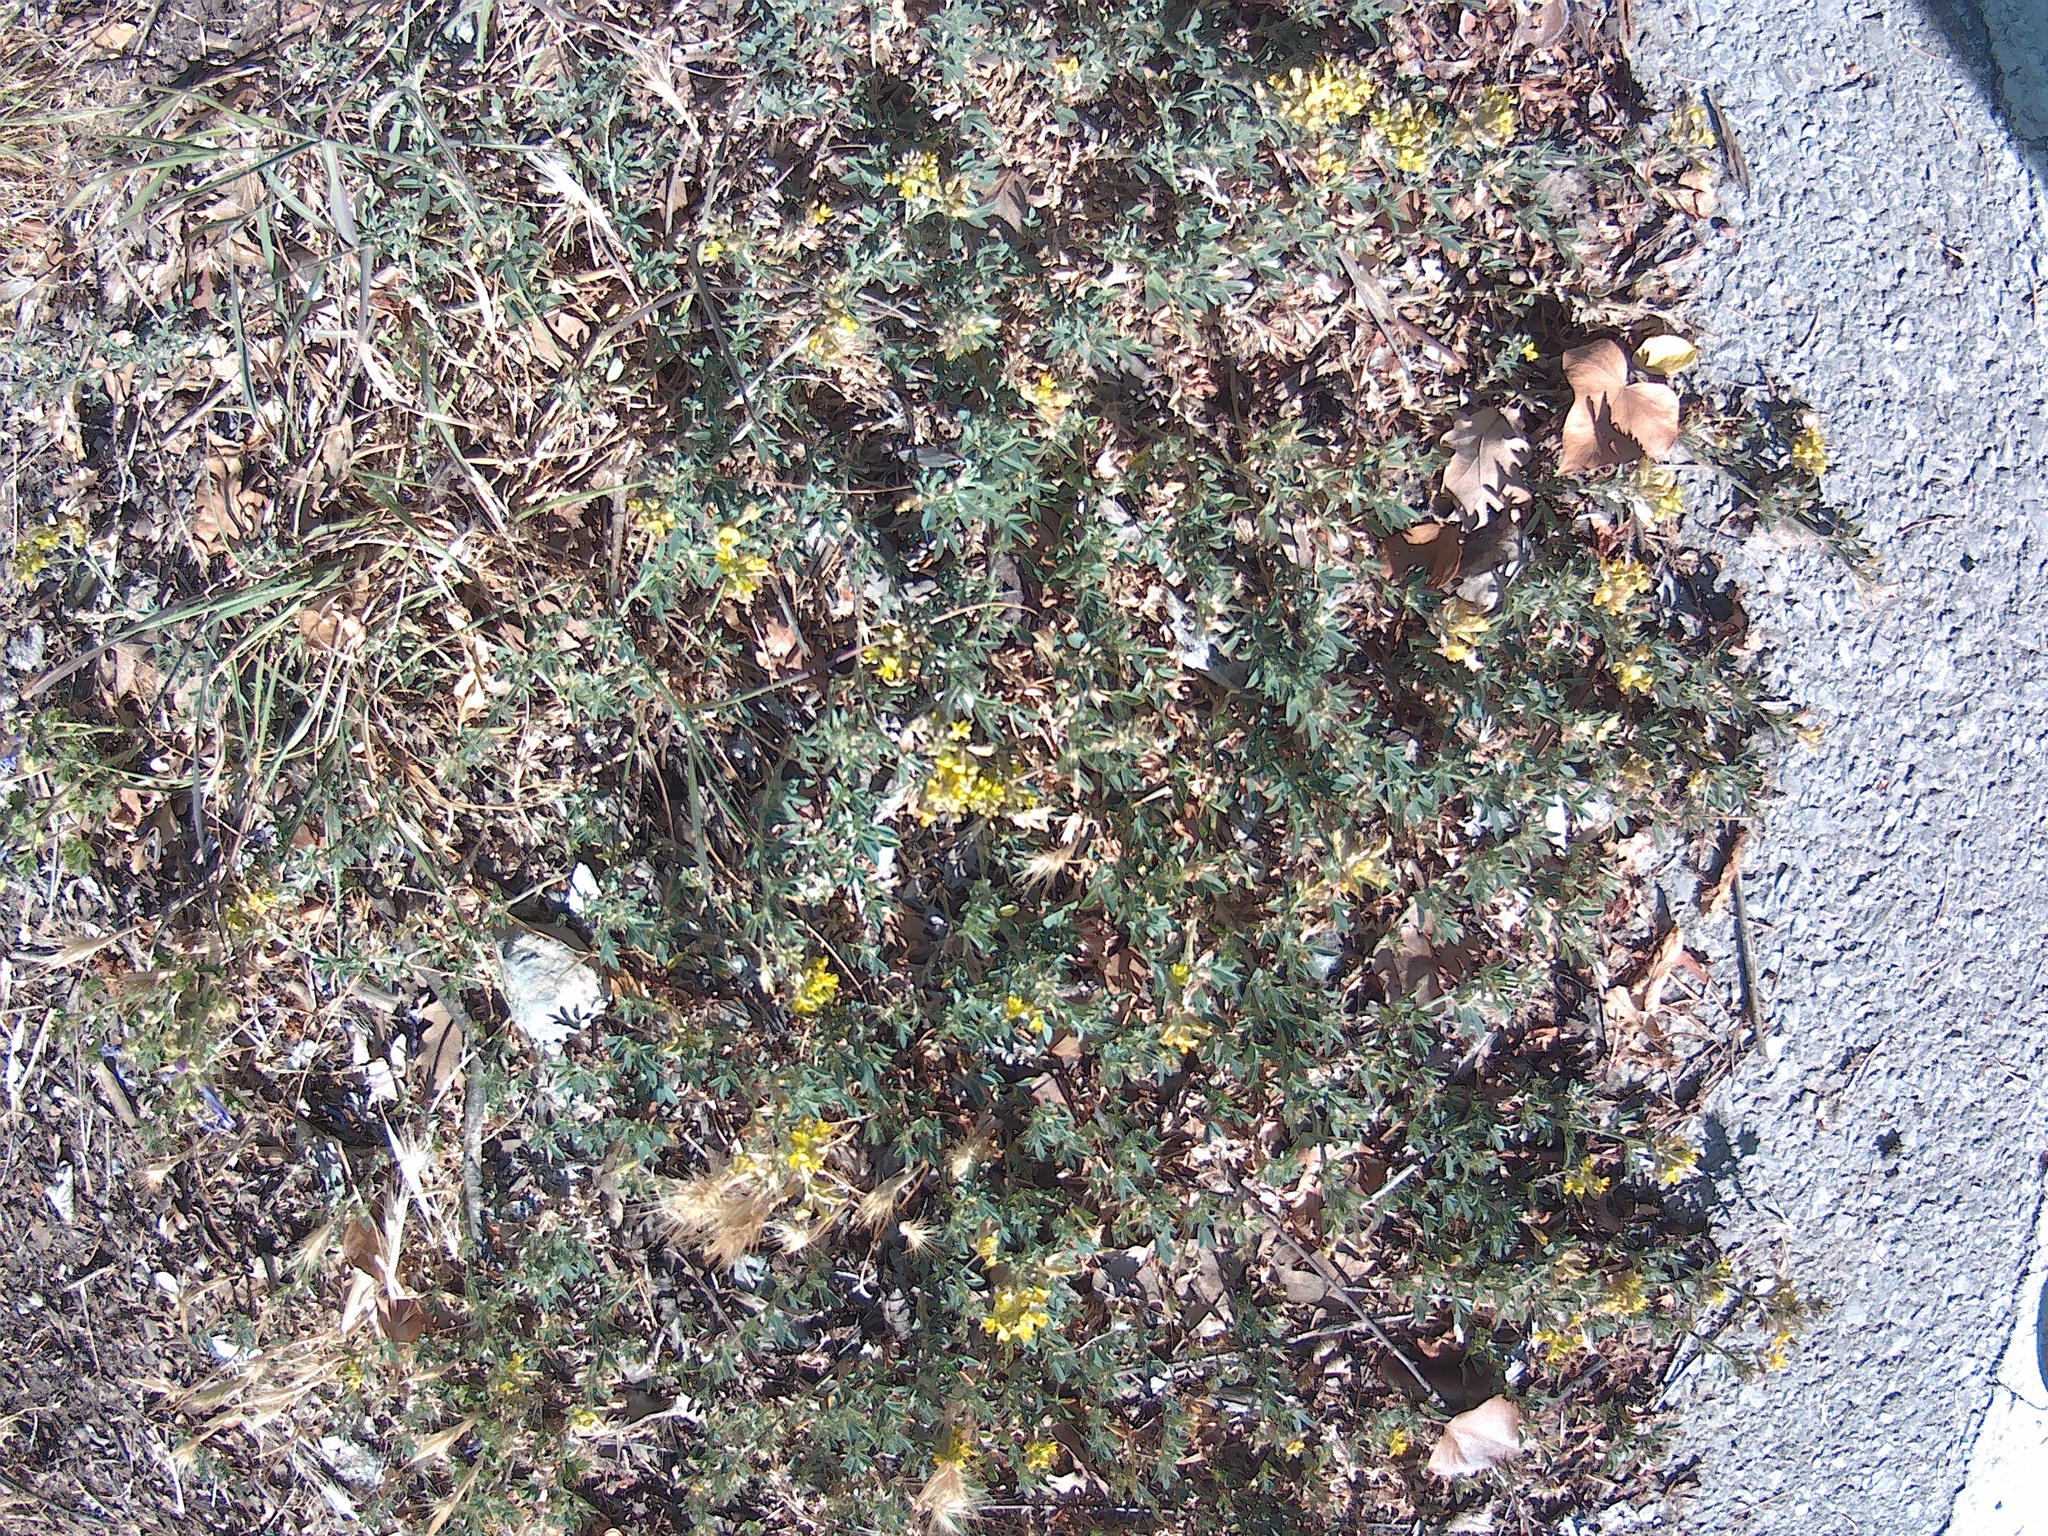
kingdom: Plantae
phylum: Tracheophyta
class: Magnoliopsida
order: Fabales
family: Fabaceae
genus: Medicago
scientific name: Medicago falcata
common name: Sickle medick
